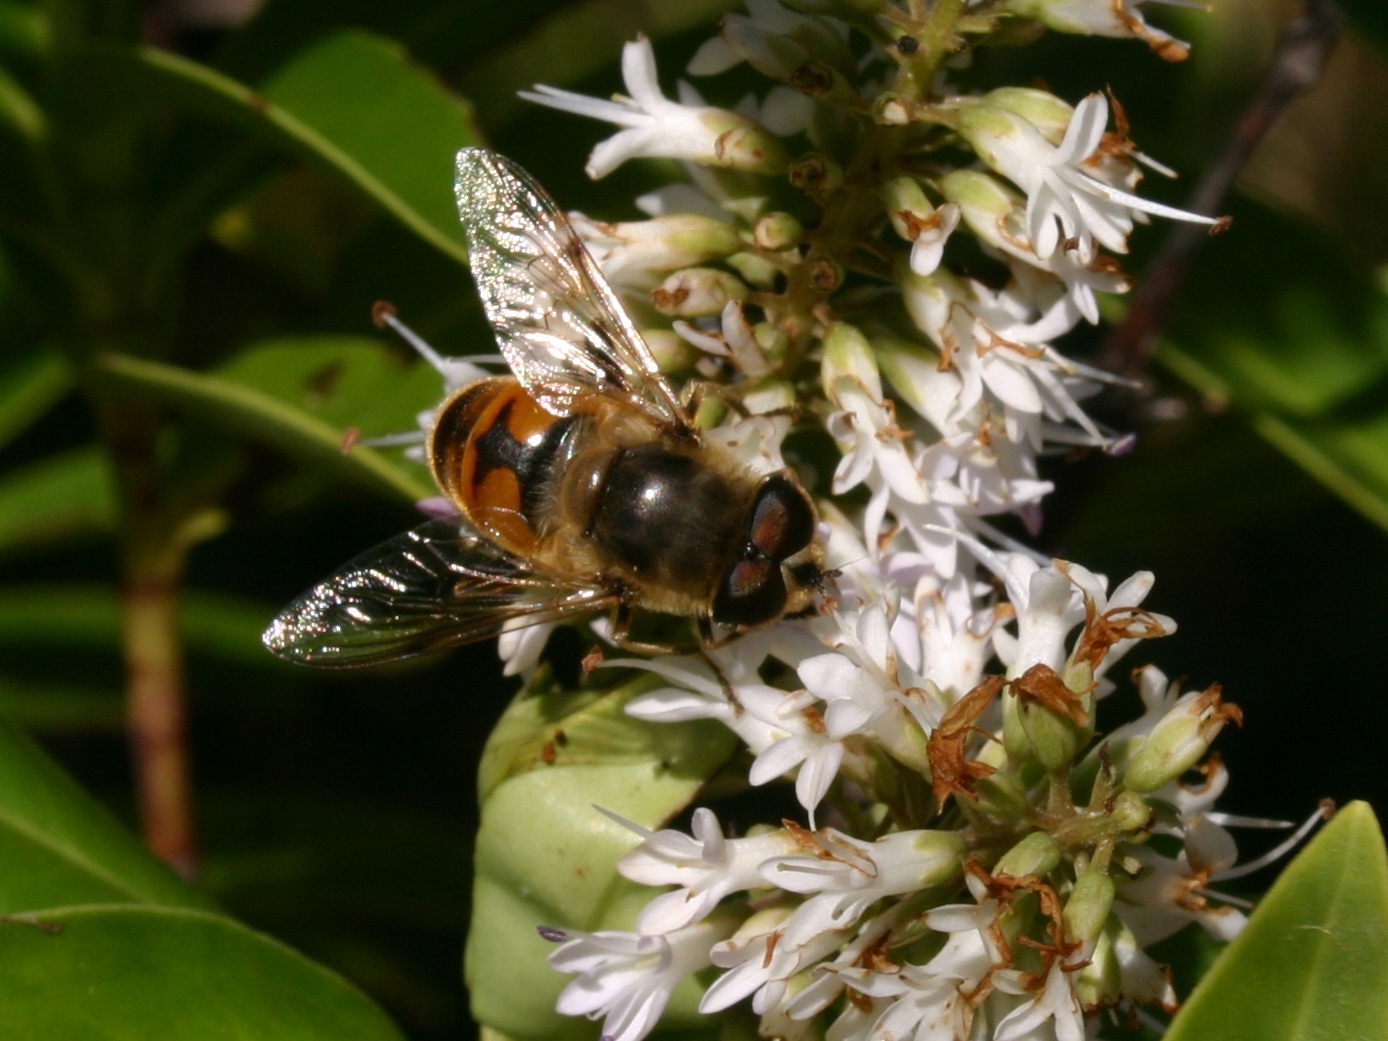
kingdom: Animalia
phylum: Arthropoda
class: Insecta
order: Diptera
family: Syrphidae
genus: Eristalis
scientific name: Eristalis tenax
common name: Drone fly
